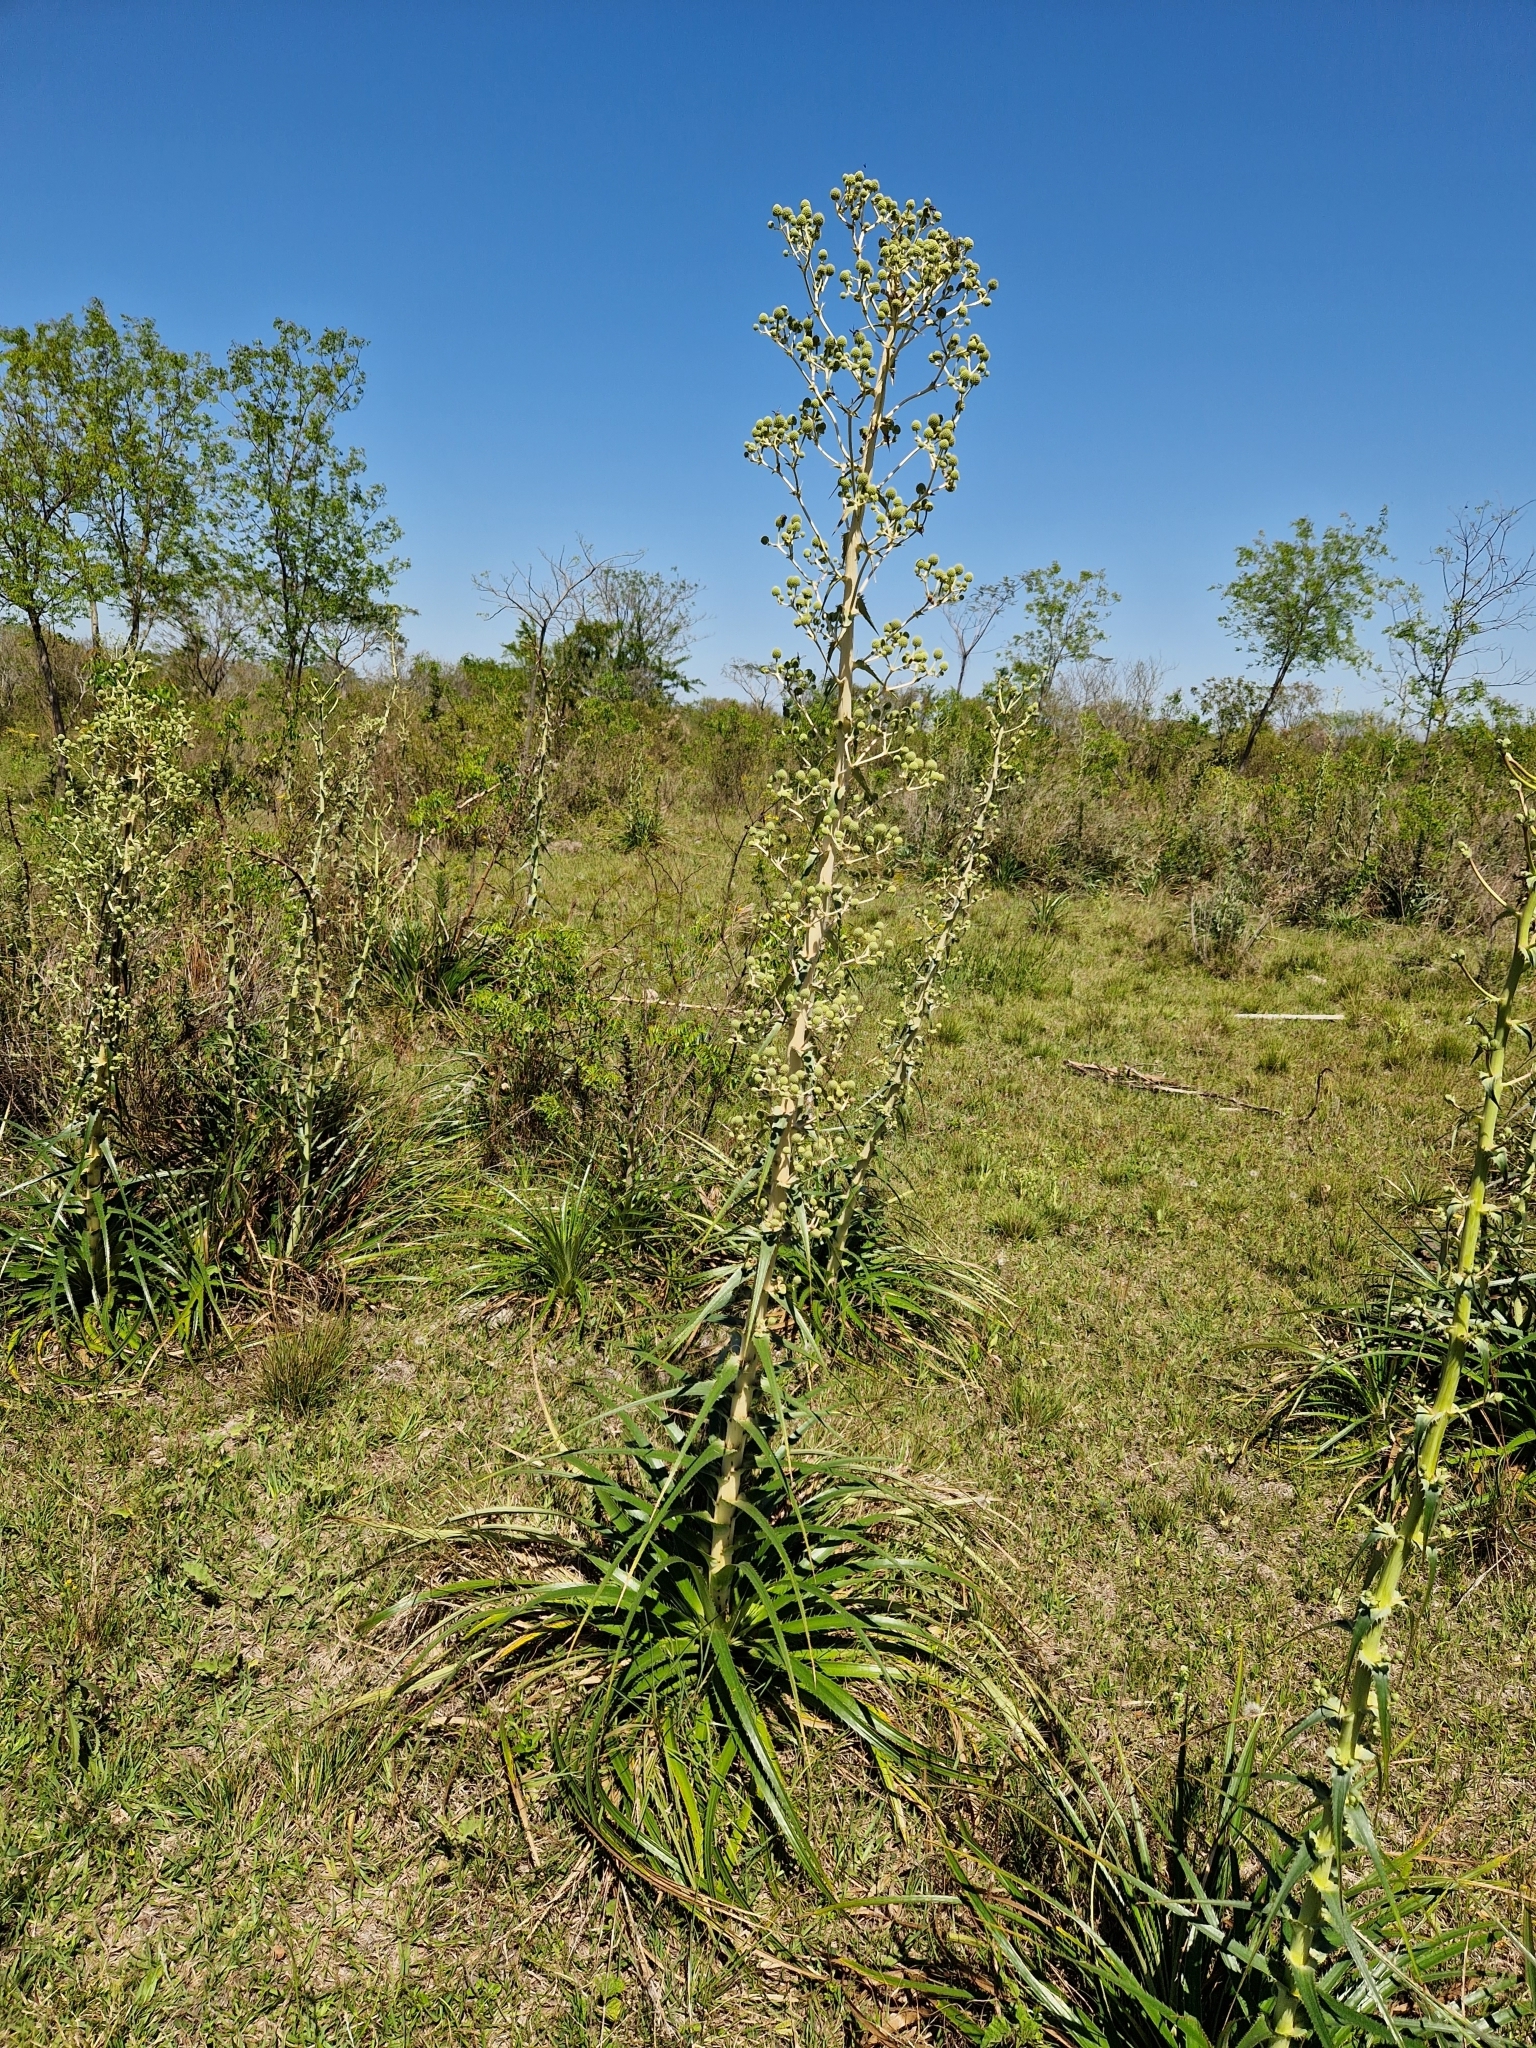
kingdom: Plantae
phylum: Tracheophyta
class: Magnoliopsida
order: Apiales
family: Apiaceae
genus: Eryngium
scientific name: Eryngium horridum
